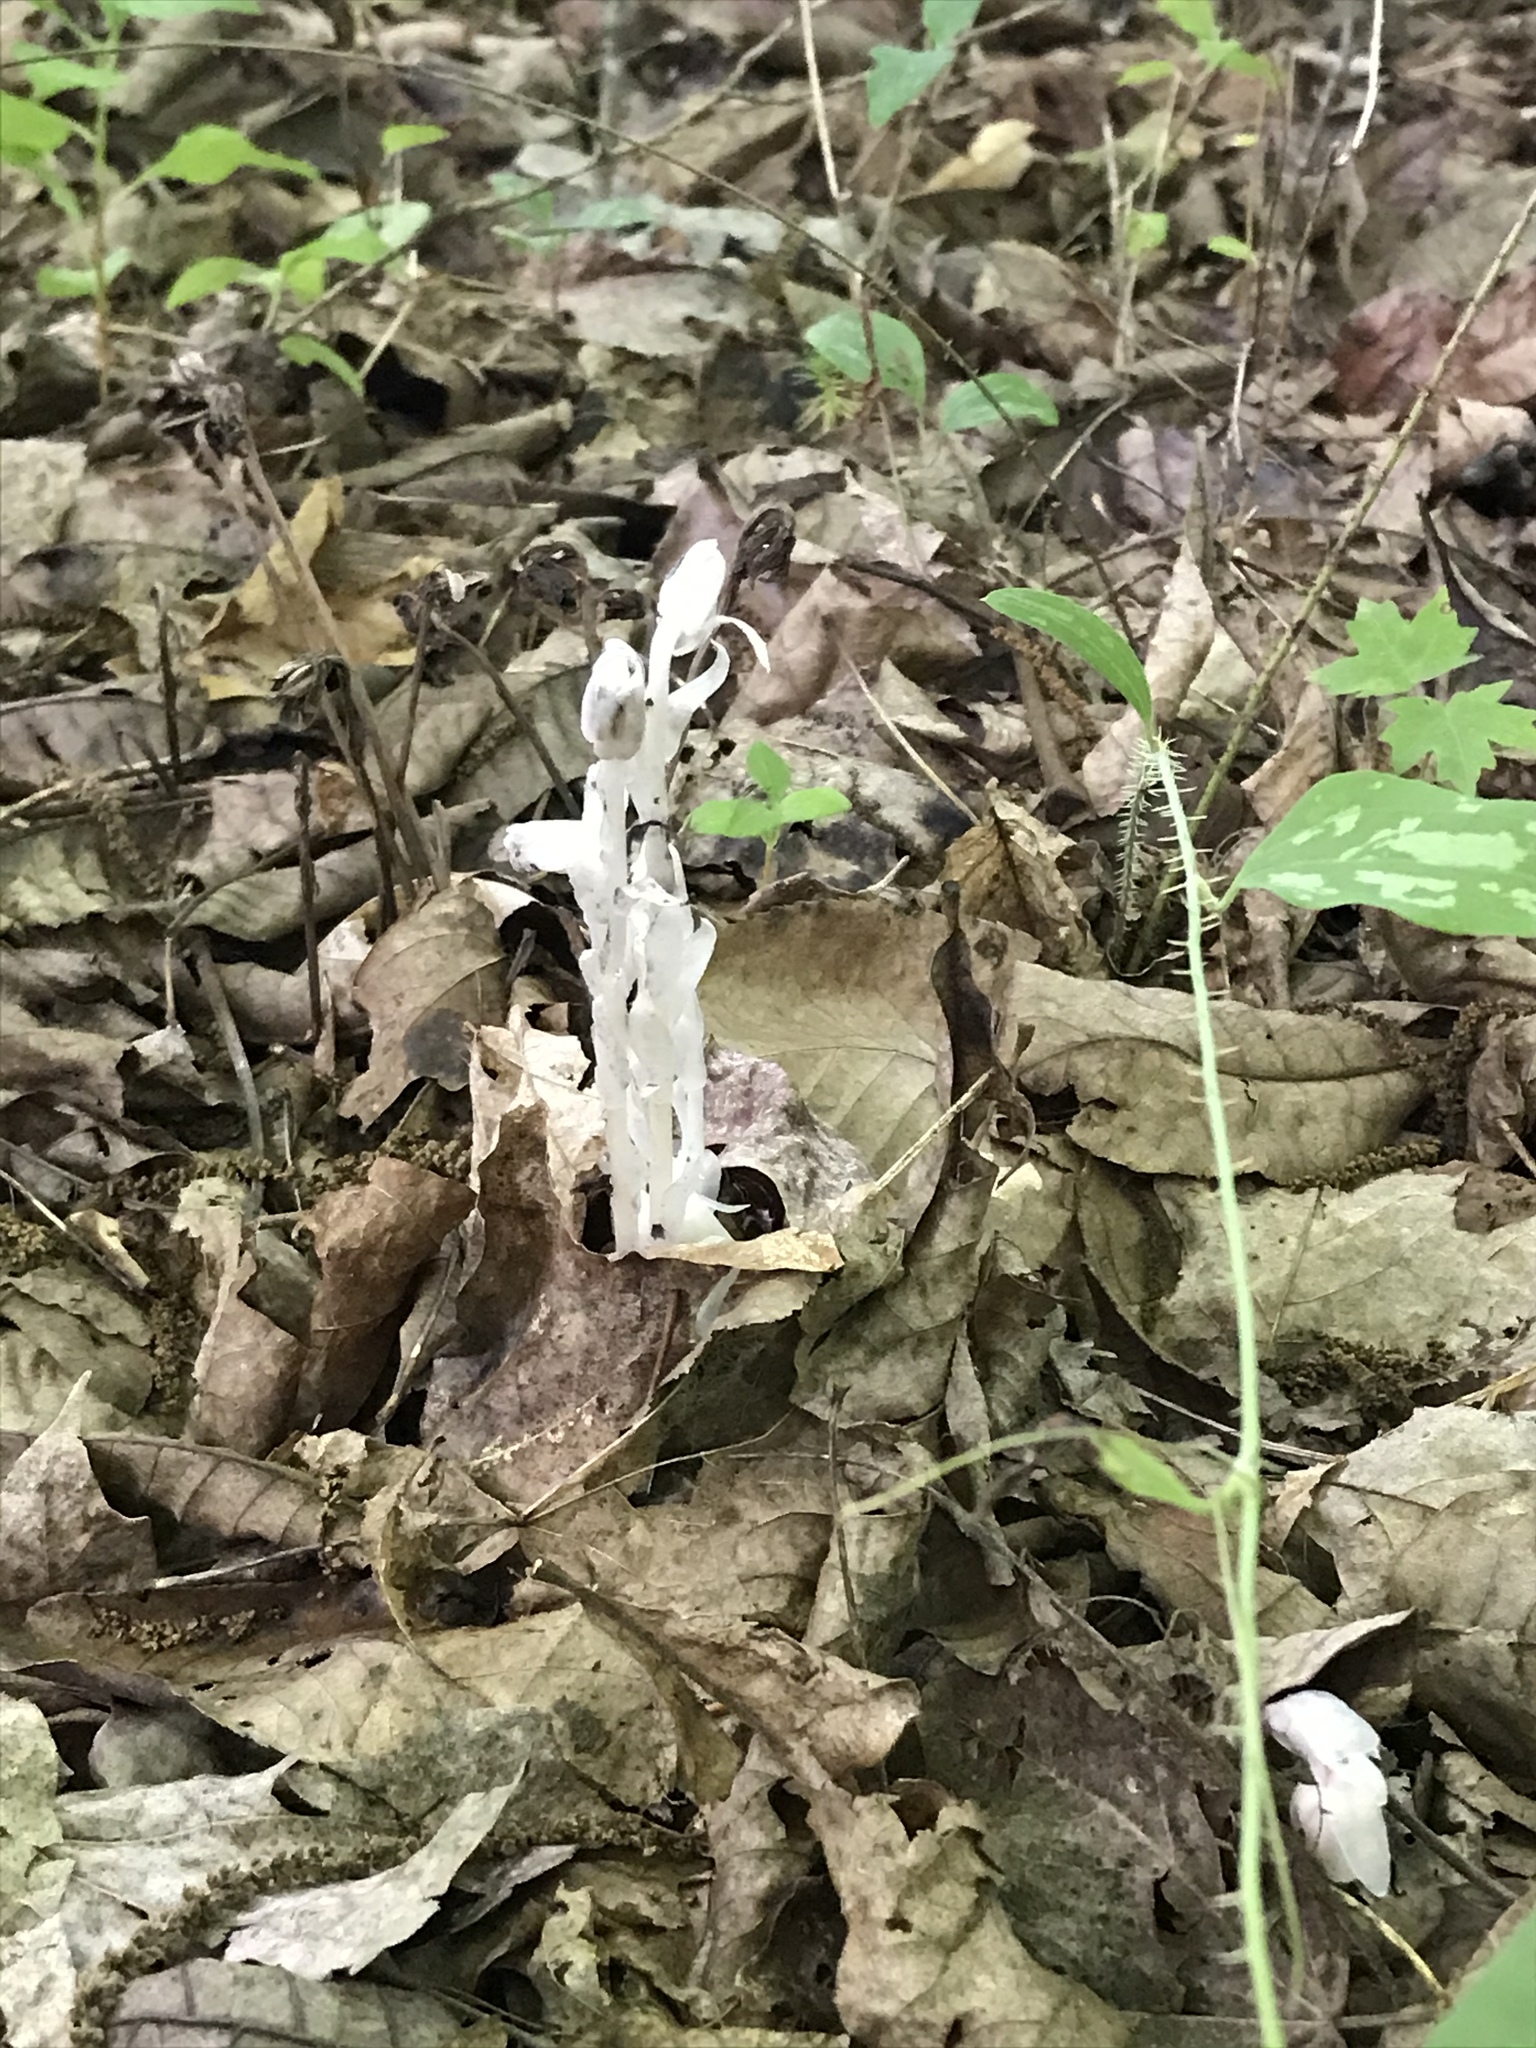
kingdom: Plantae
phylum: Tracheophyta
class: Magnoliopsida
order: Ericales
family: Ericaceae
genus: Monotropa
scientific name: Monotropa uniflora
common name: Convulsion root
